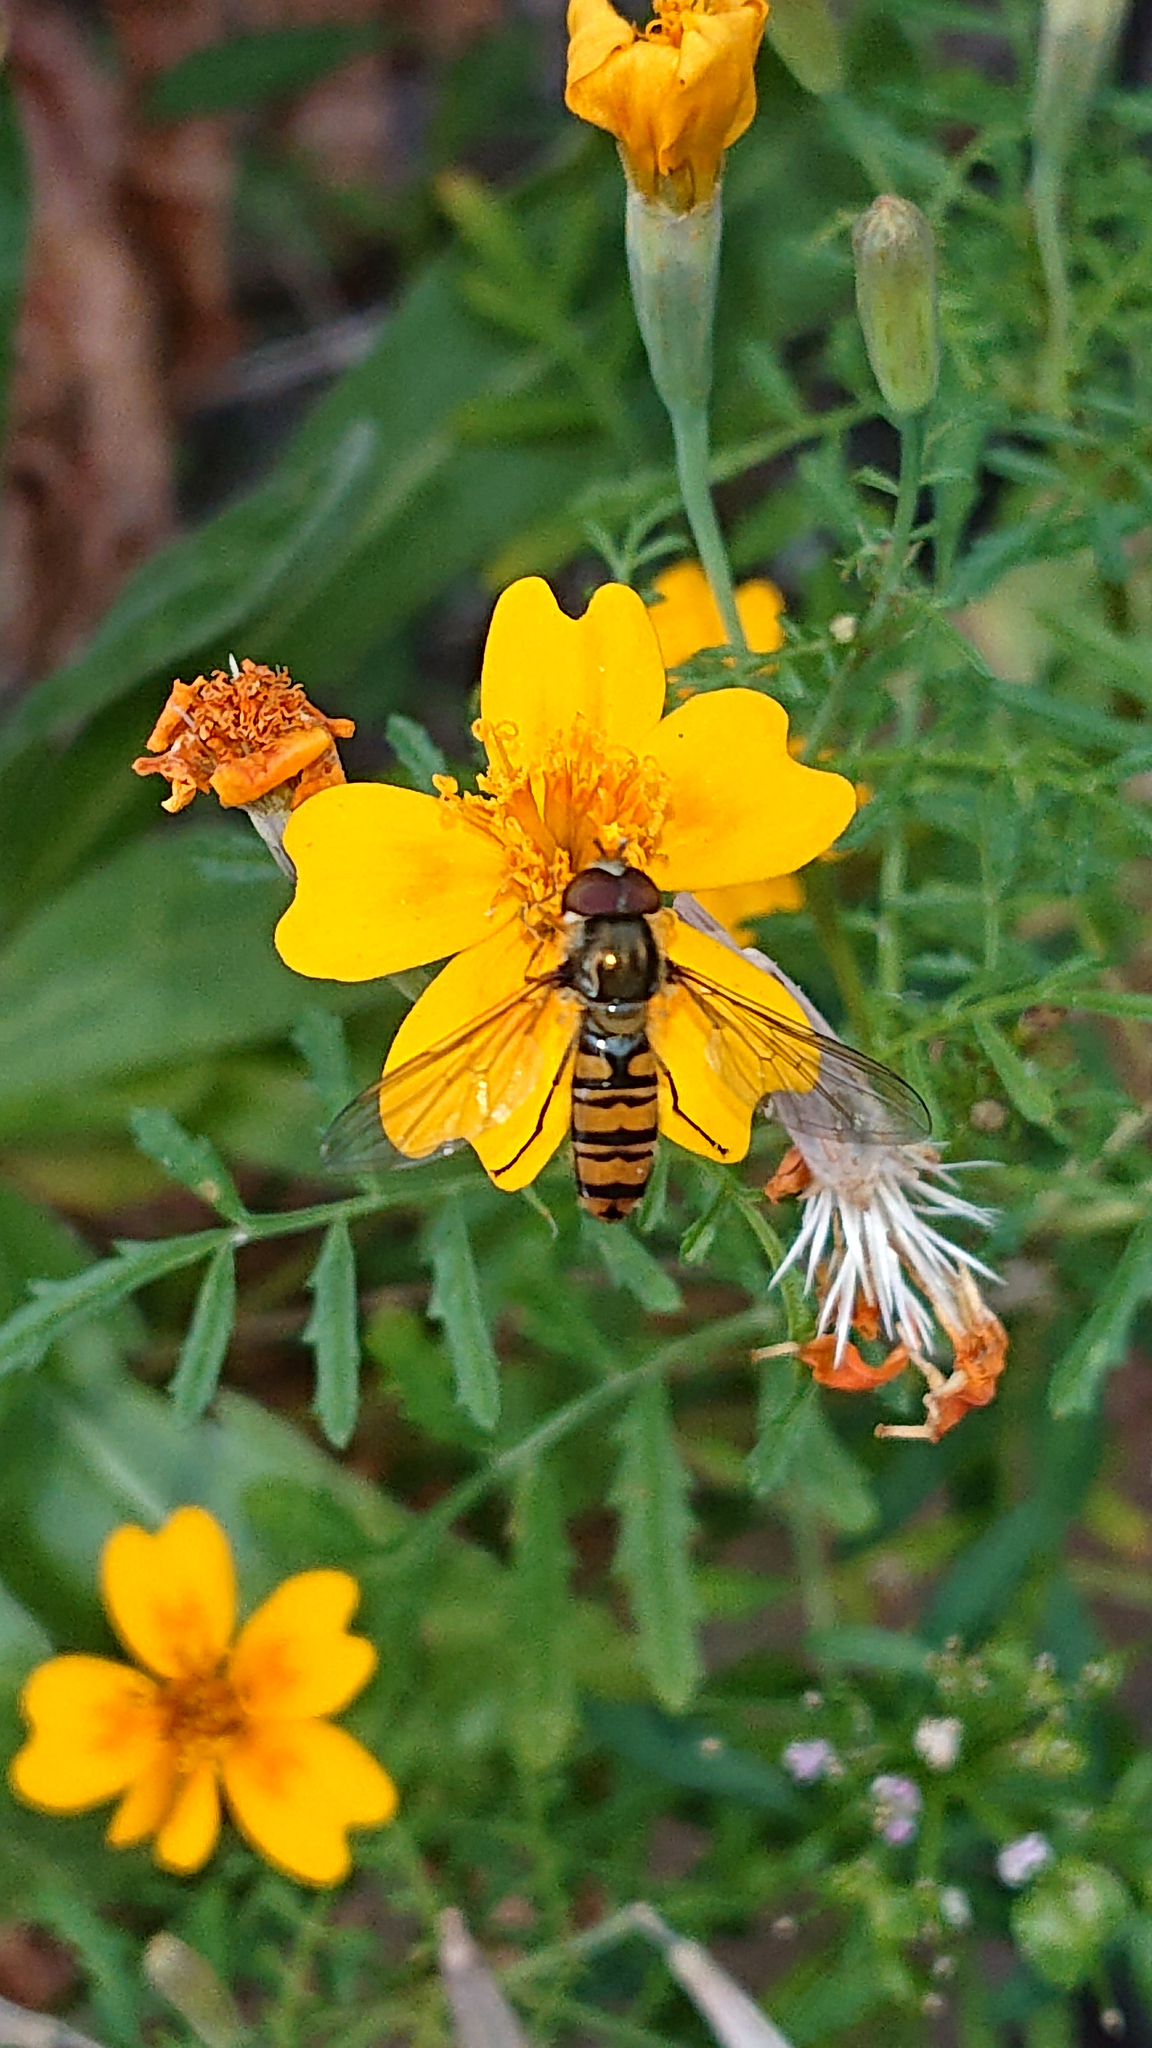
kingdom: Animalia
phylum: Arthropoda
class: Insecta
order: Diptera
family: Syrphidae
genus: Episyrphus
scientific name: Episyrphus balteatus
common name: Marmalade hoverfly
